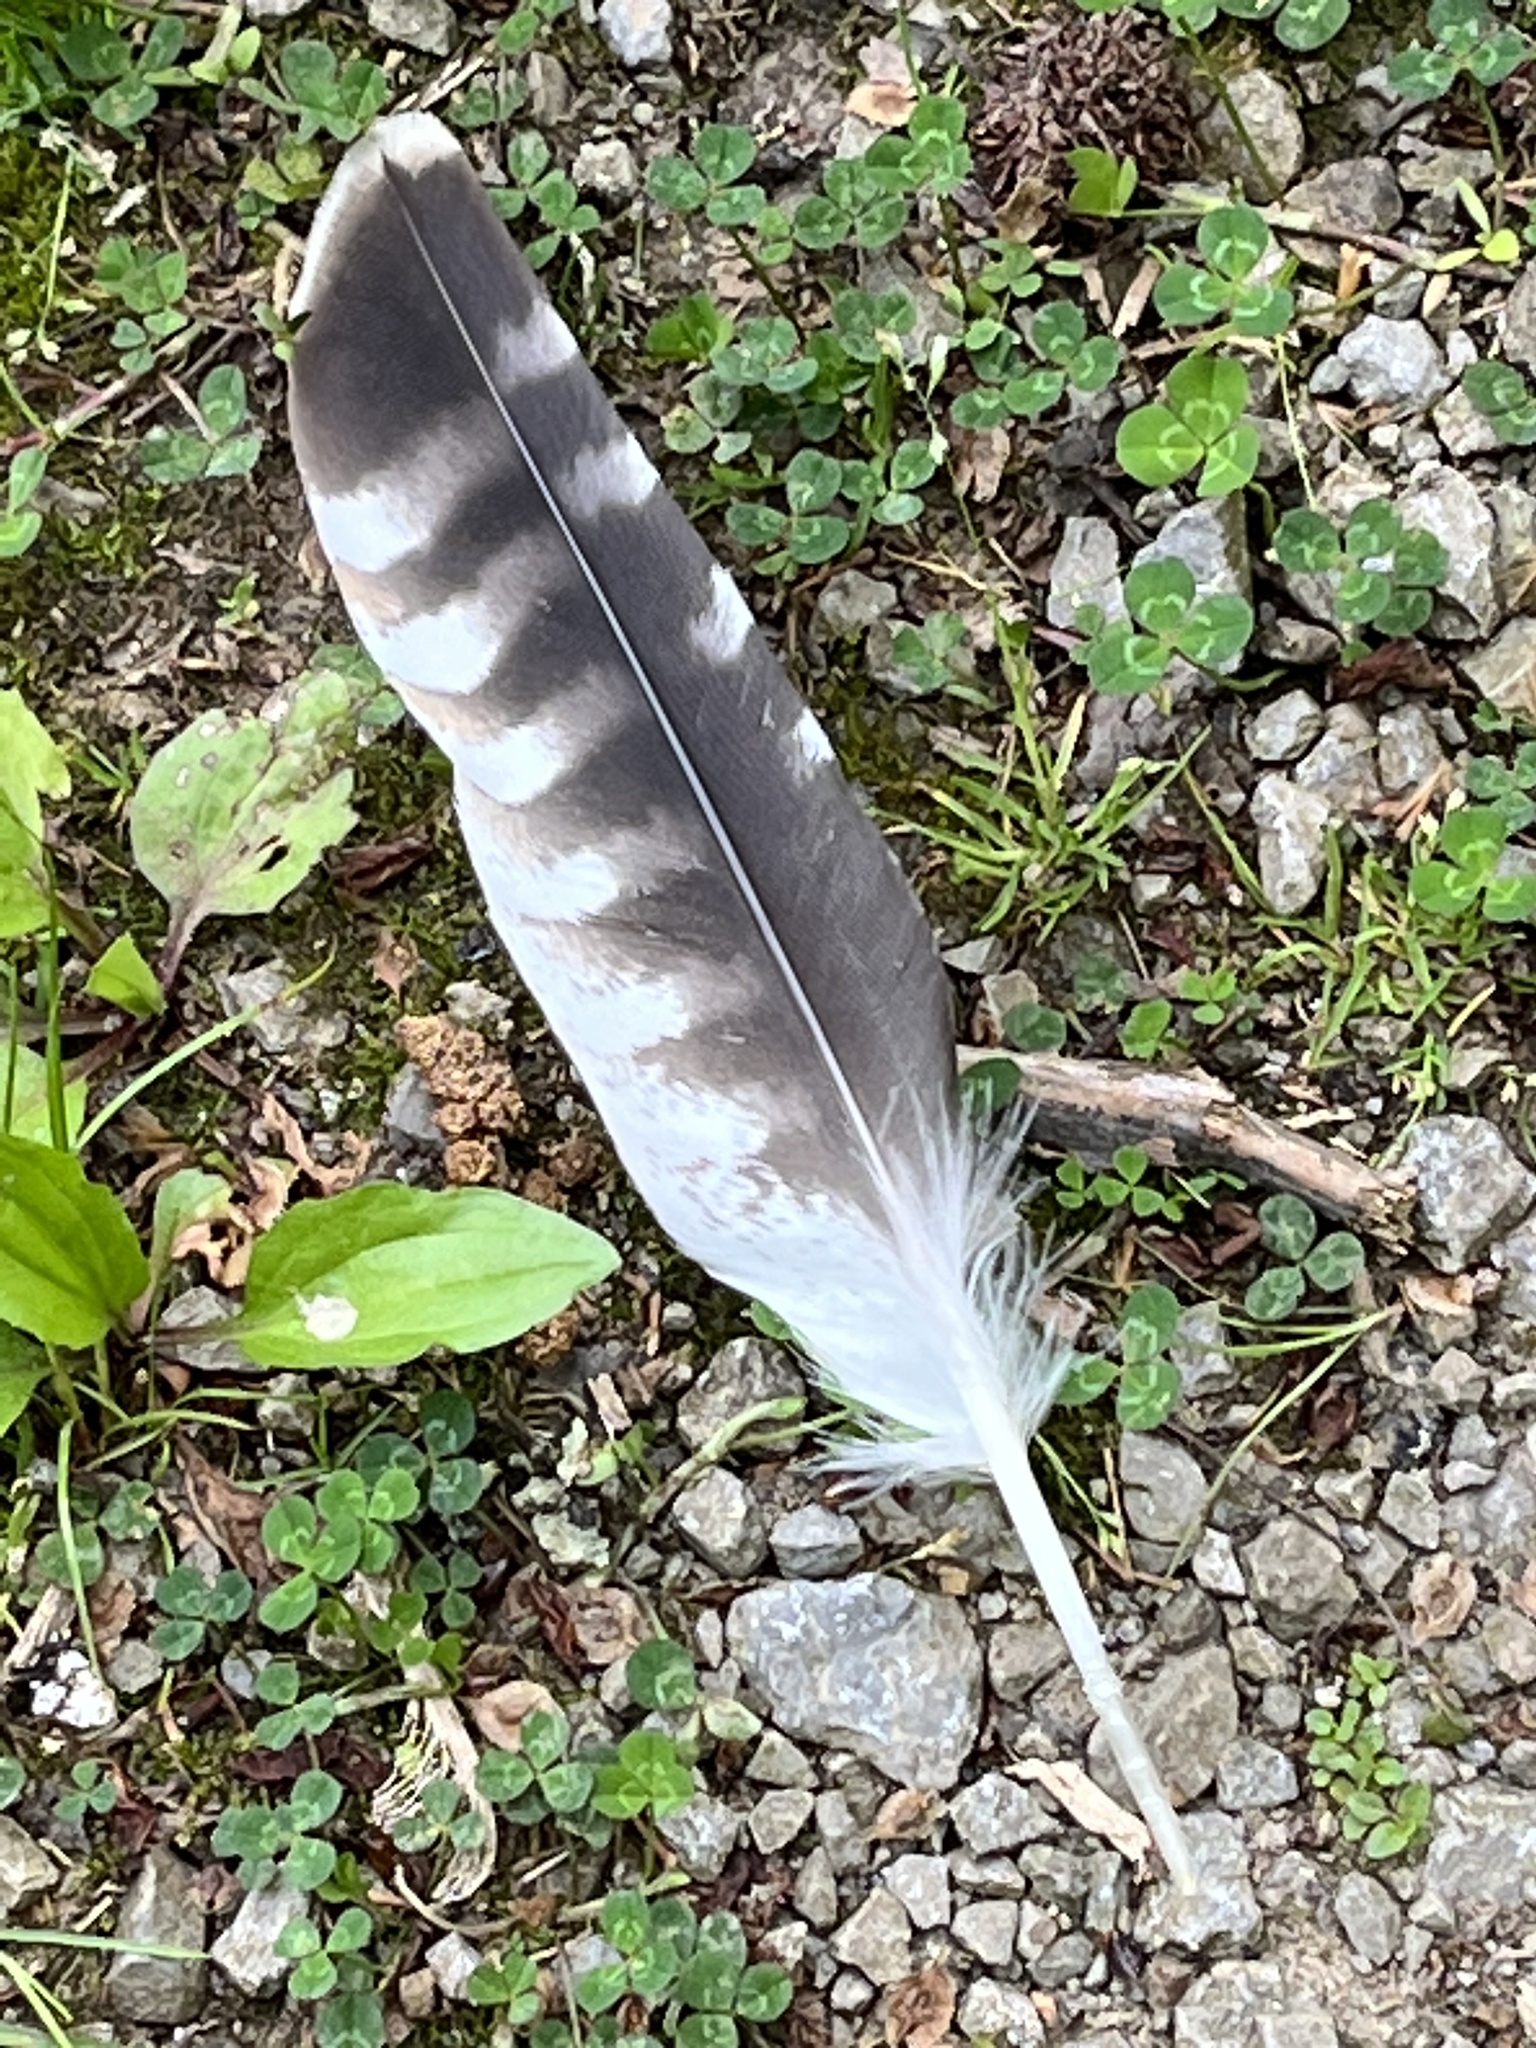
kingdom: Animalia
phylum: Chordata
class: Aves
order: Accipitriformes
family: Accipitridae
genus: Buteo
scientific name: Buteo lineatus
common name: Red-shouldered hawk
